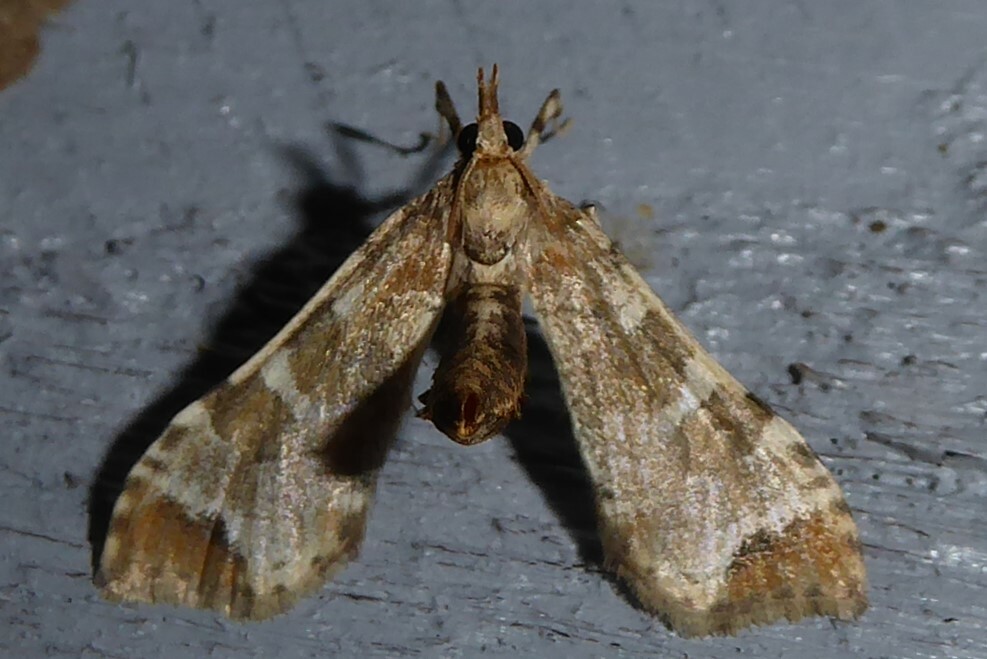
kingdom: Animalia
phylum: Arthropoda
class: Insecta
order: Lepidoptera
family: Crambidae
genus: Sceliodes
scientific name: Sceliodes cordalis
